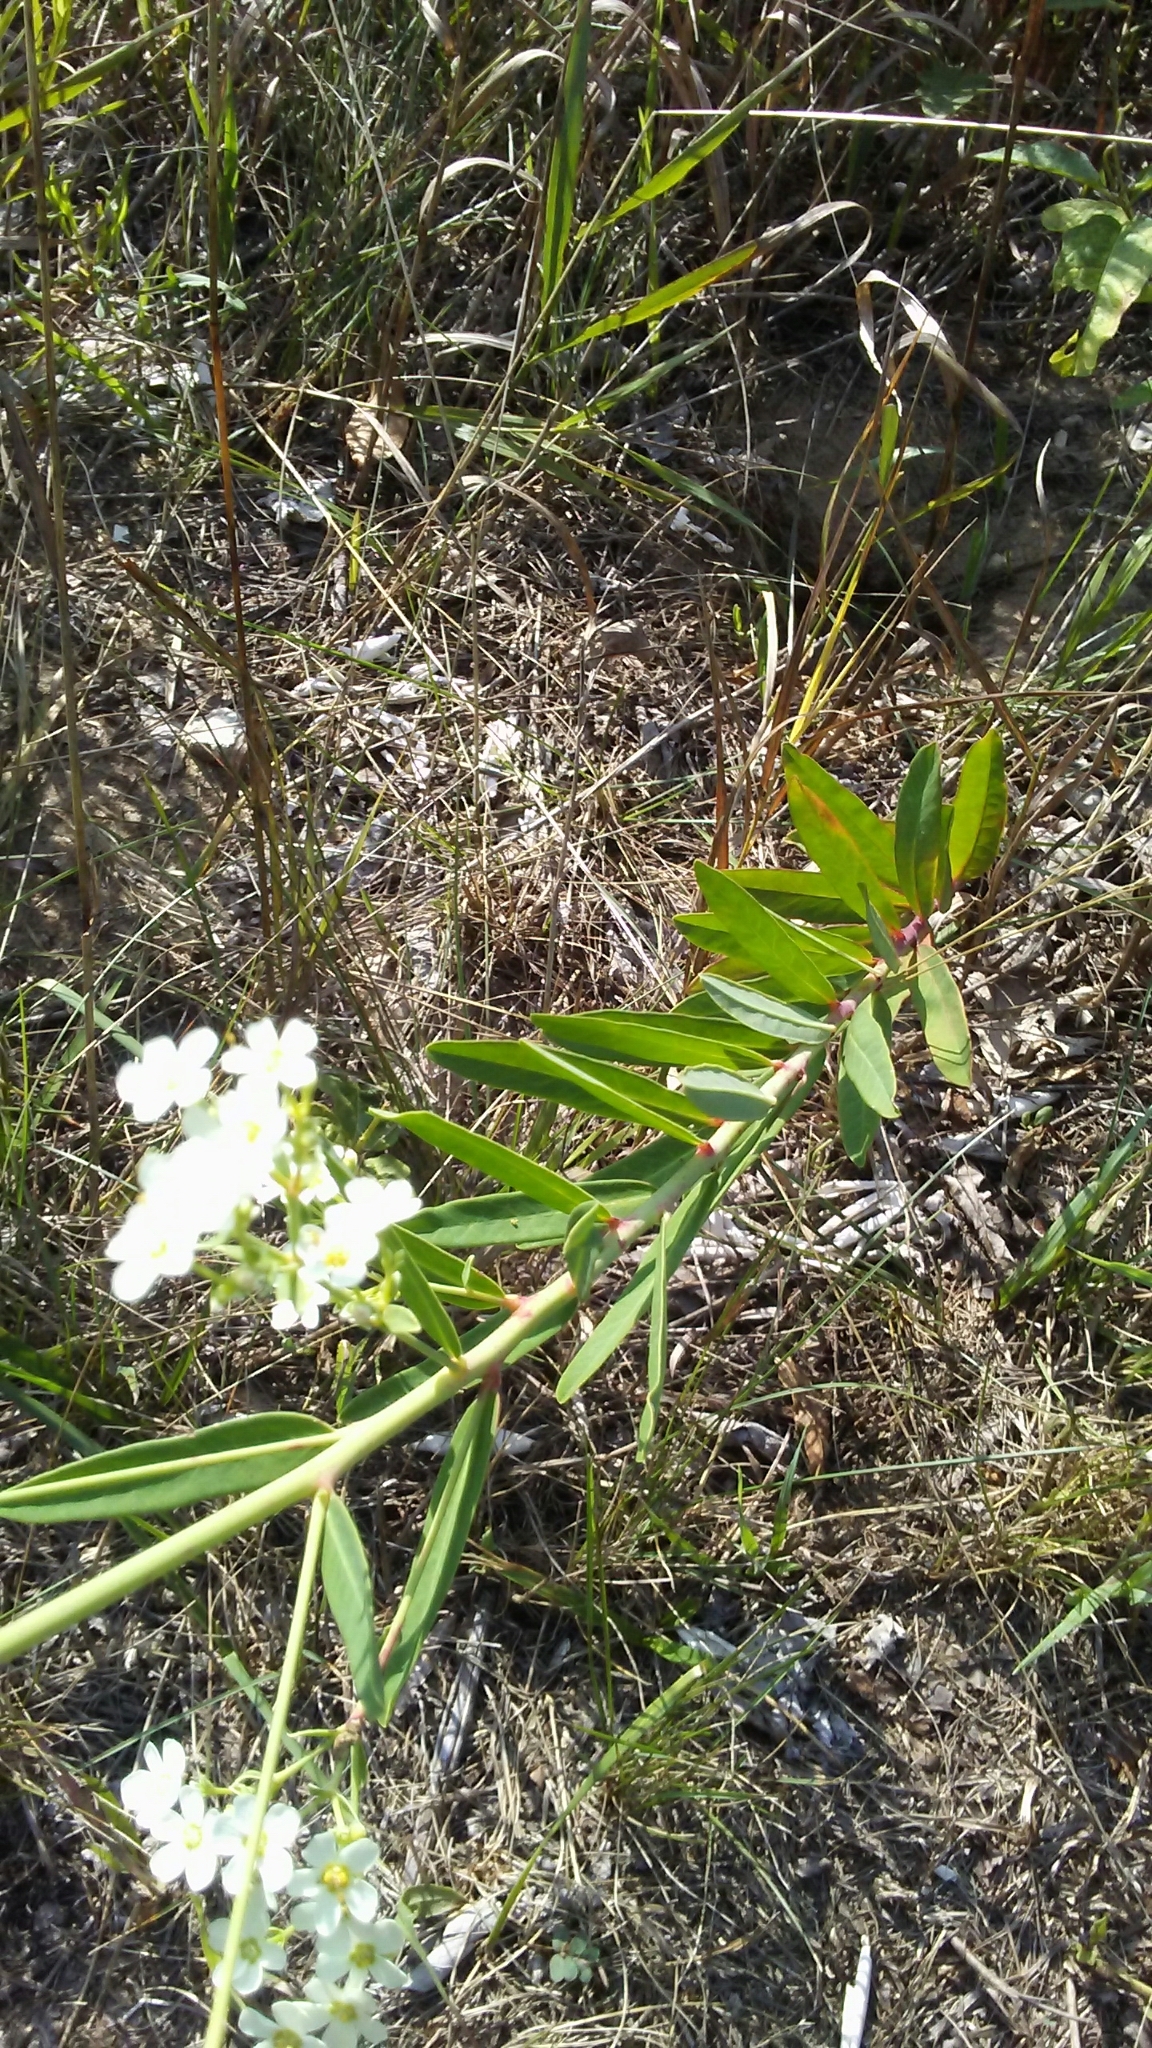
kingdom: Plantae
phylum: Tracheophyta
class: Magnoliopsida
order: Malpighiales
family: Euphorbiaceae
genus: Euphorbia
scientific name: Euphorbia corollata
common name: Flowering spurge
